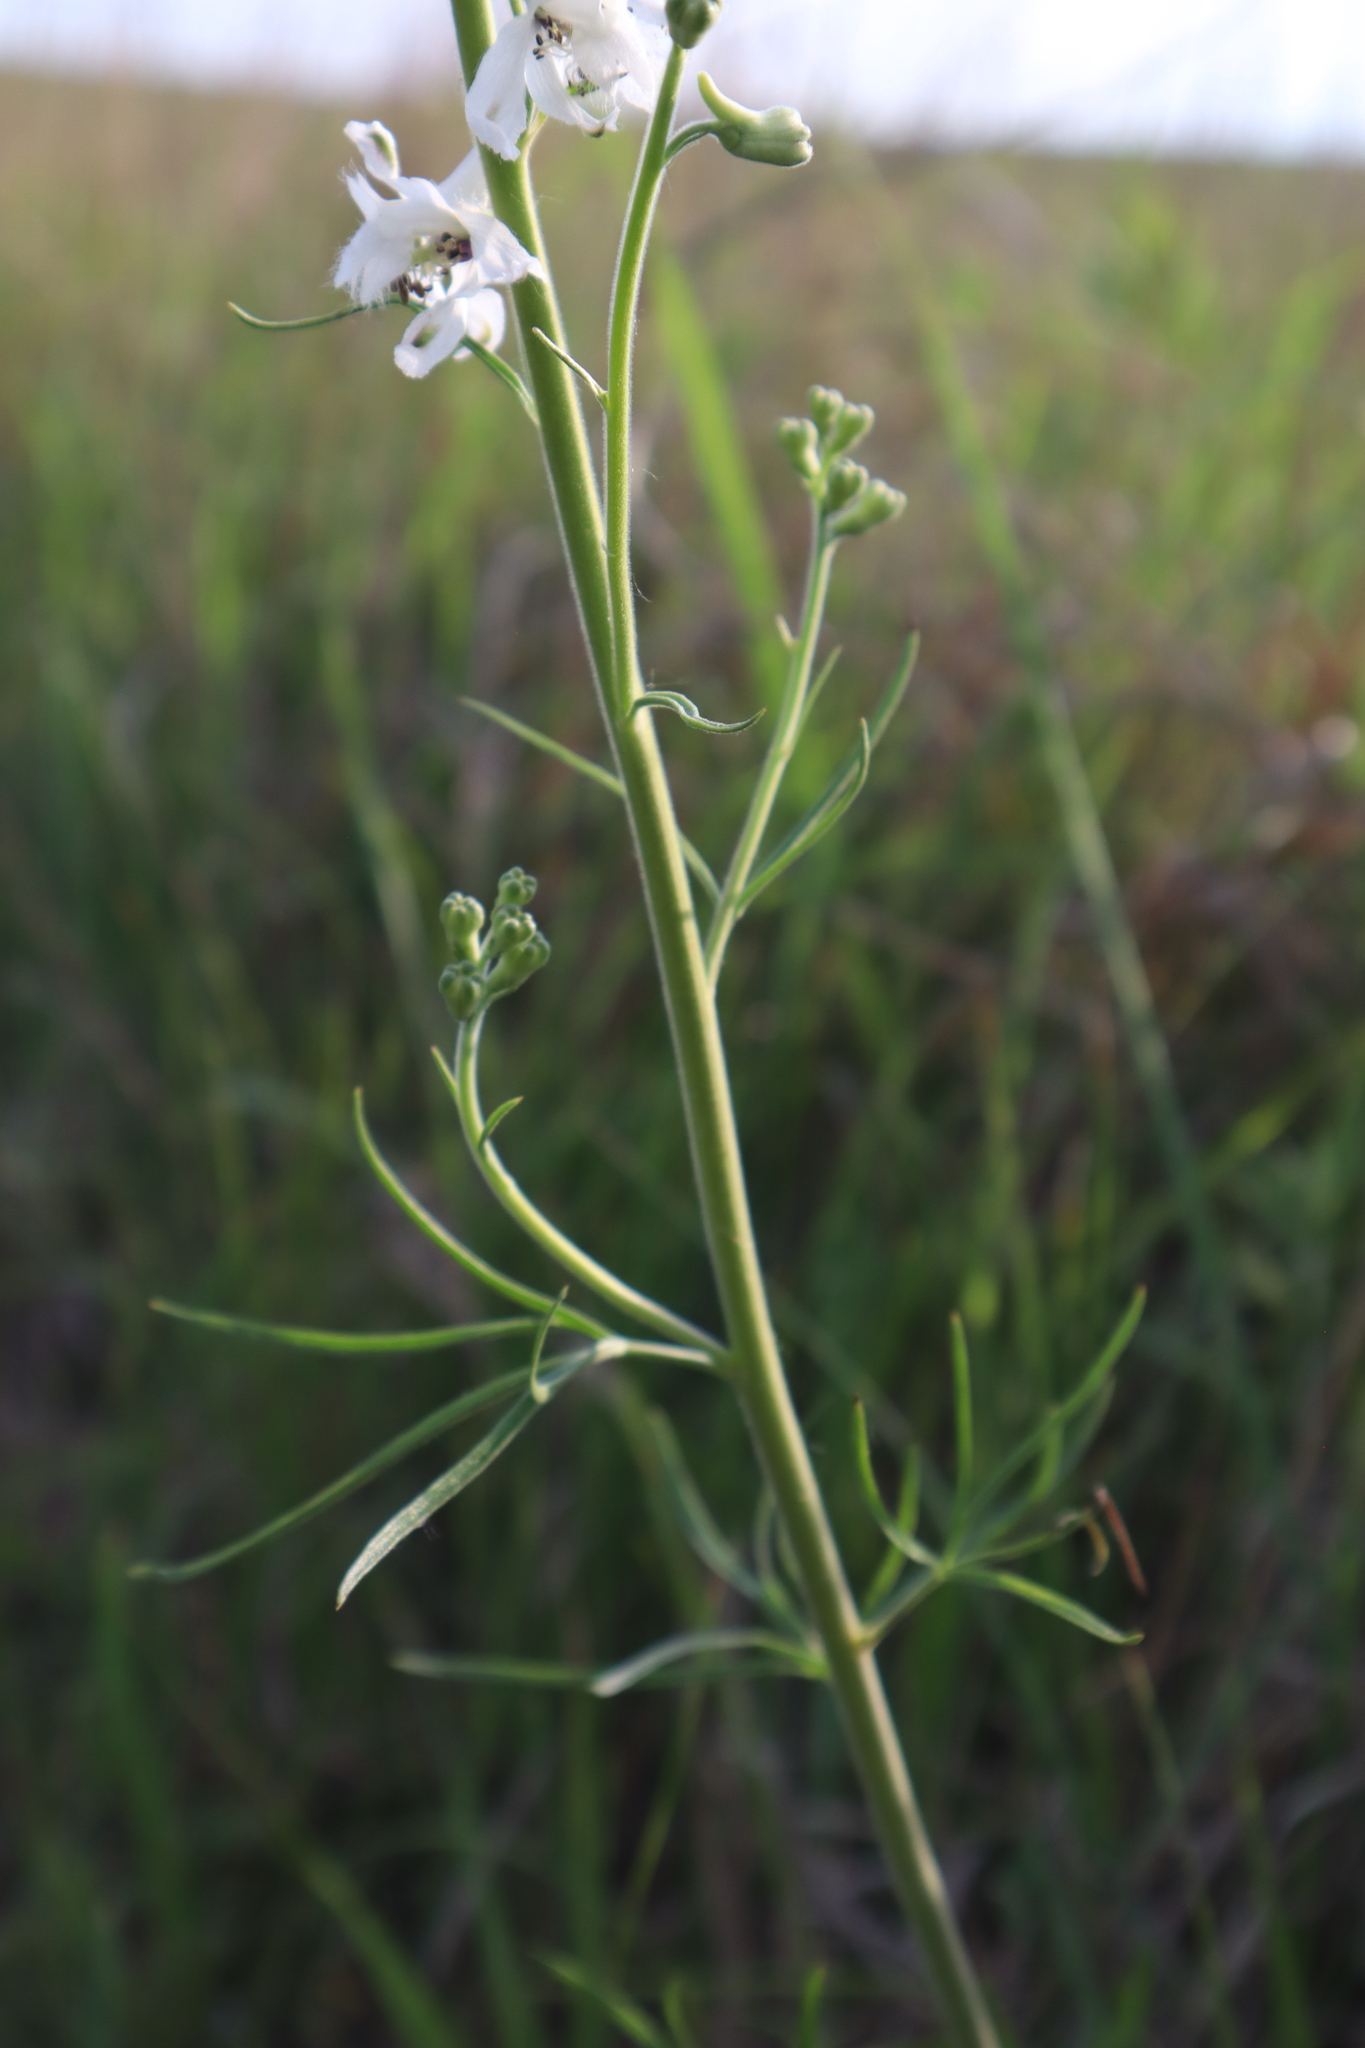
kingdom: Plantae
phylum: Tracheophyta
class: Magnoliopsida
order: Ranunculales
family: Ranunculaceae
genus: Delphinium
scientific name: Delphinium carolinianum
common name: Carolina larkspur
